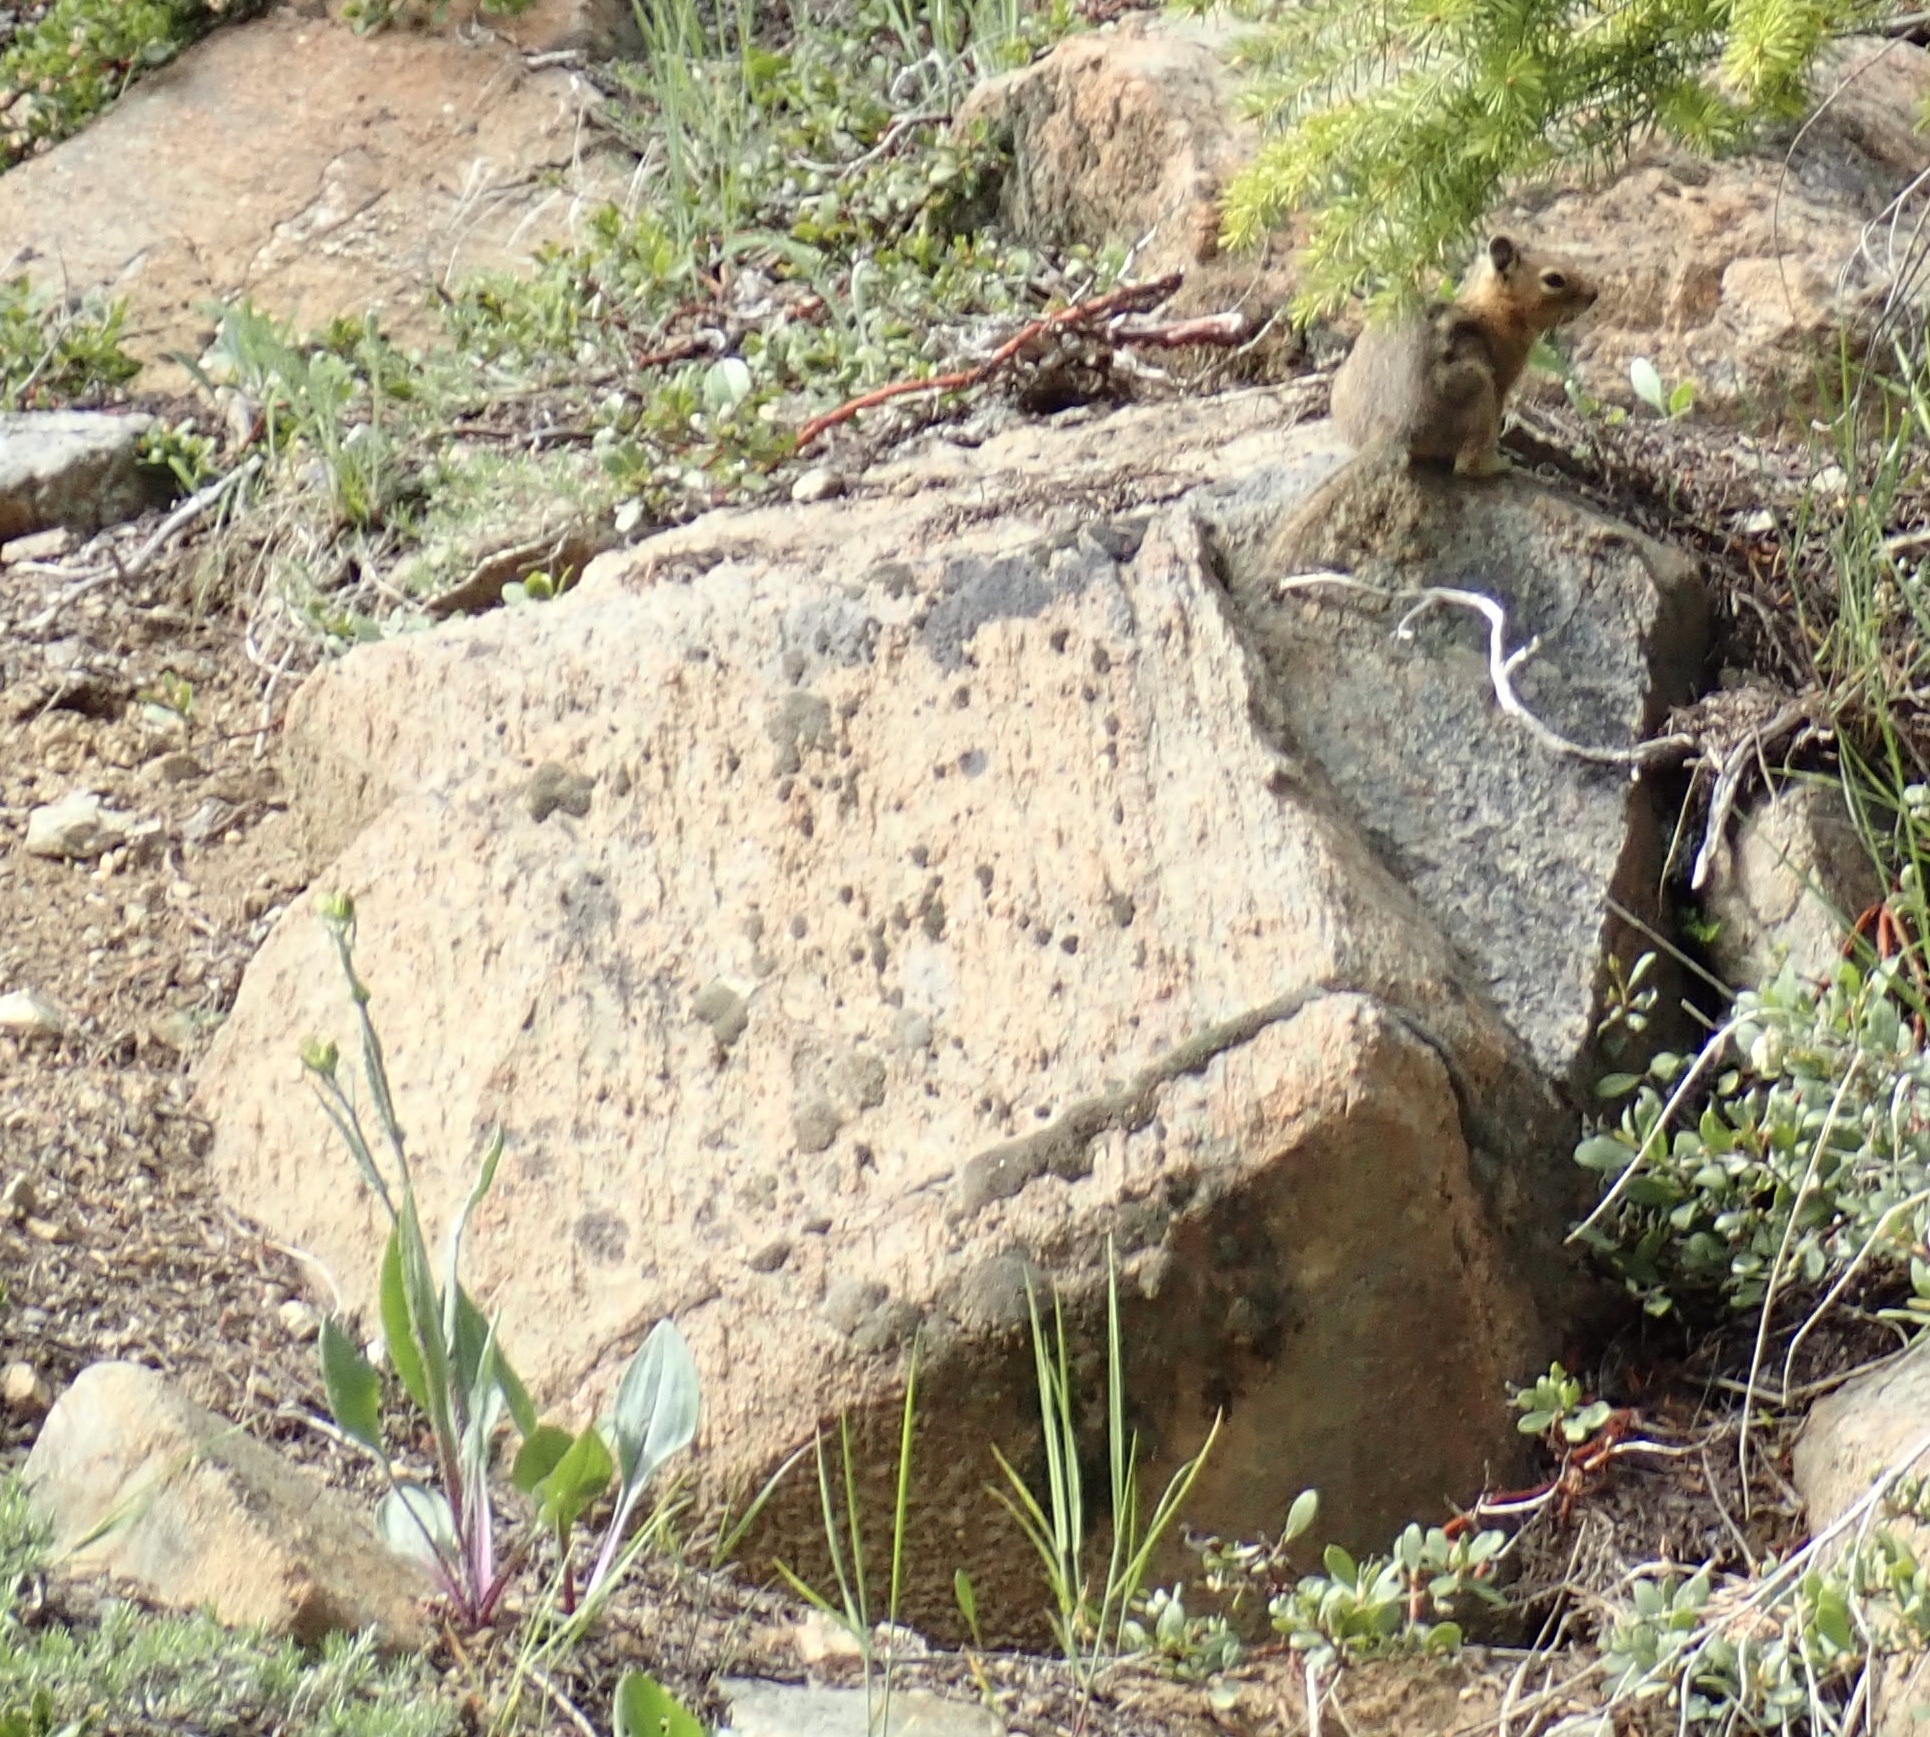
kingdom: Animalia
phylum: Chordata
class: Mammalia
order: Rodentia
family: Sciuridae
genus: Callospermophilus
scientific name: Callospermophilus saturatus
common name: Cascade golden-mantled ground squirrel
